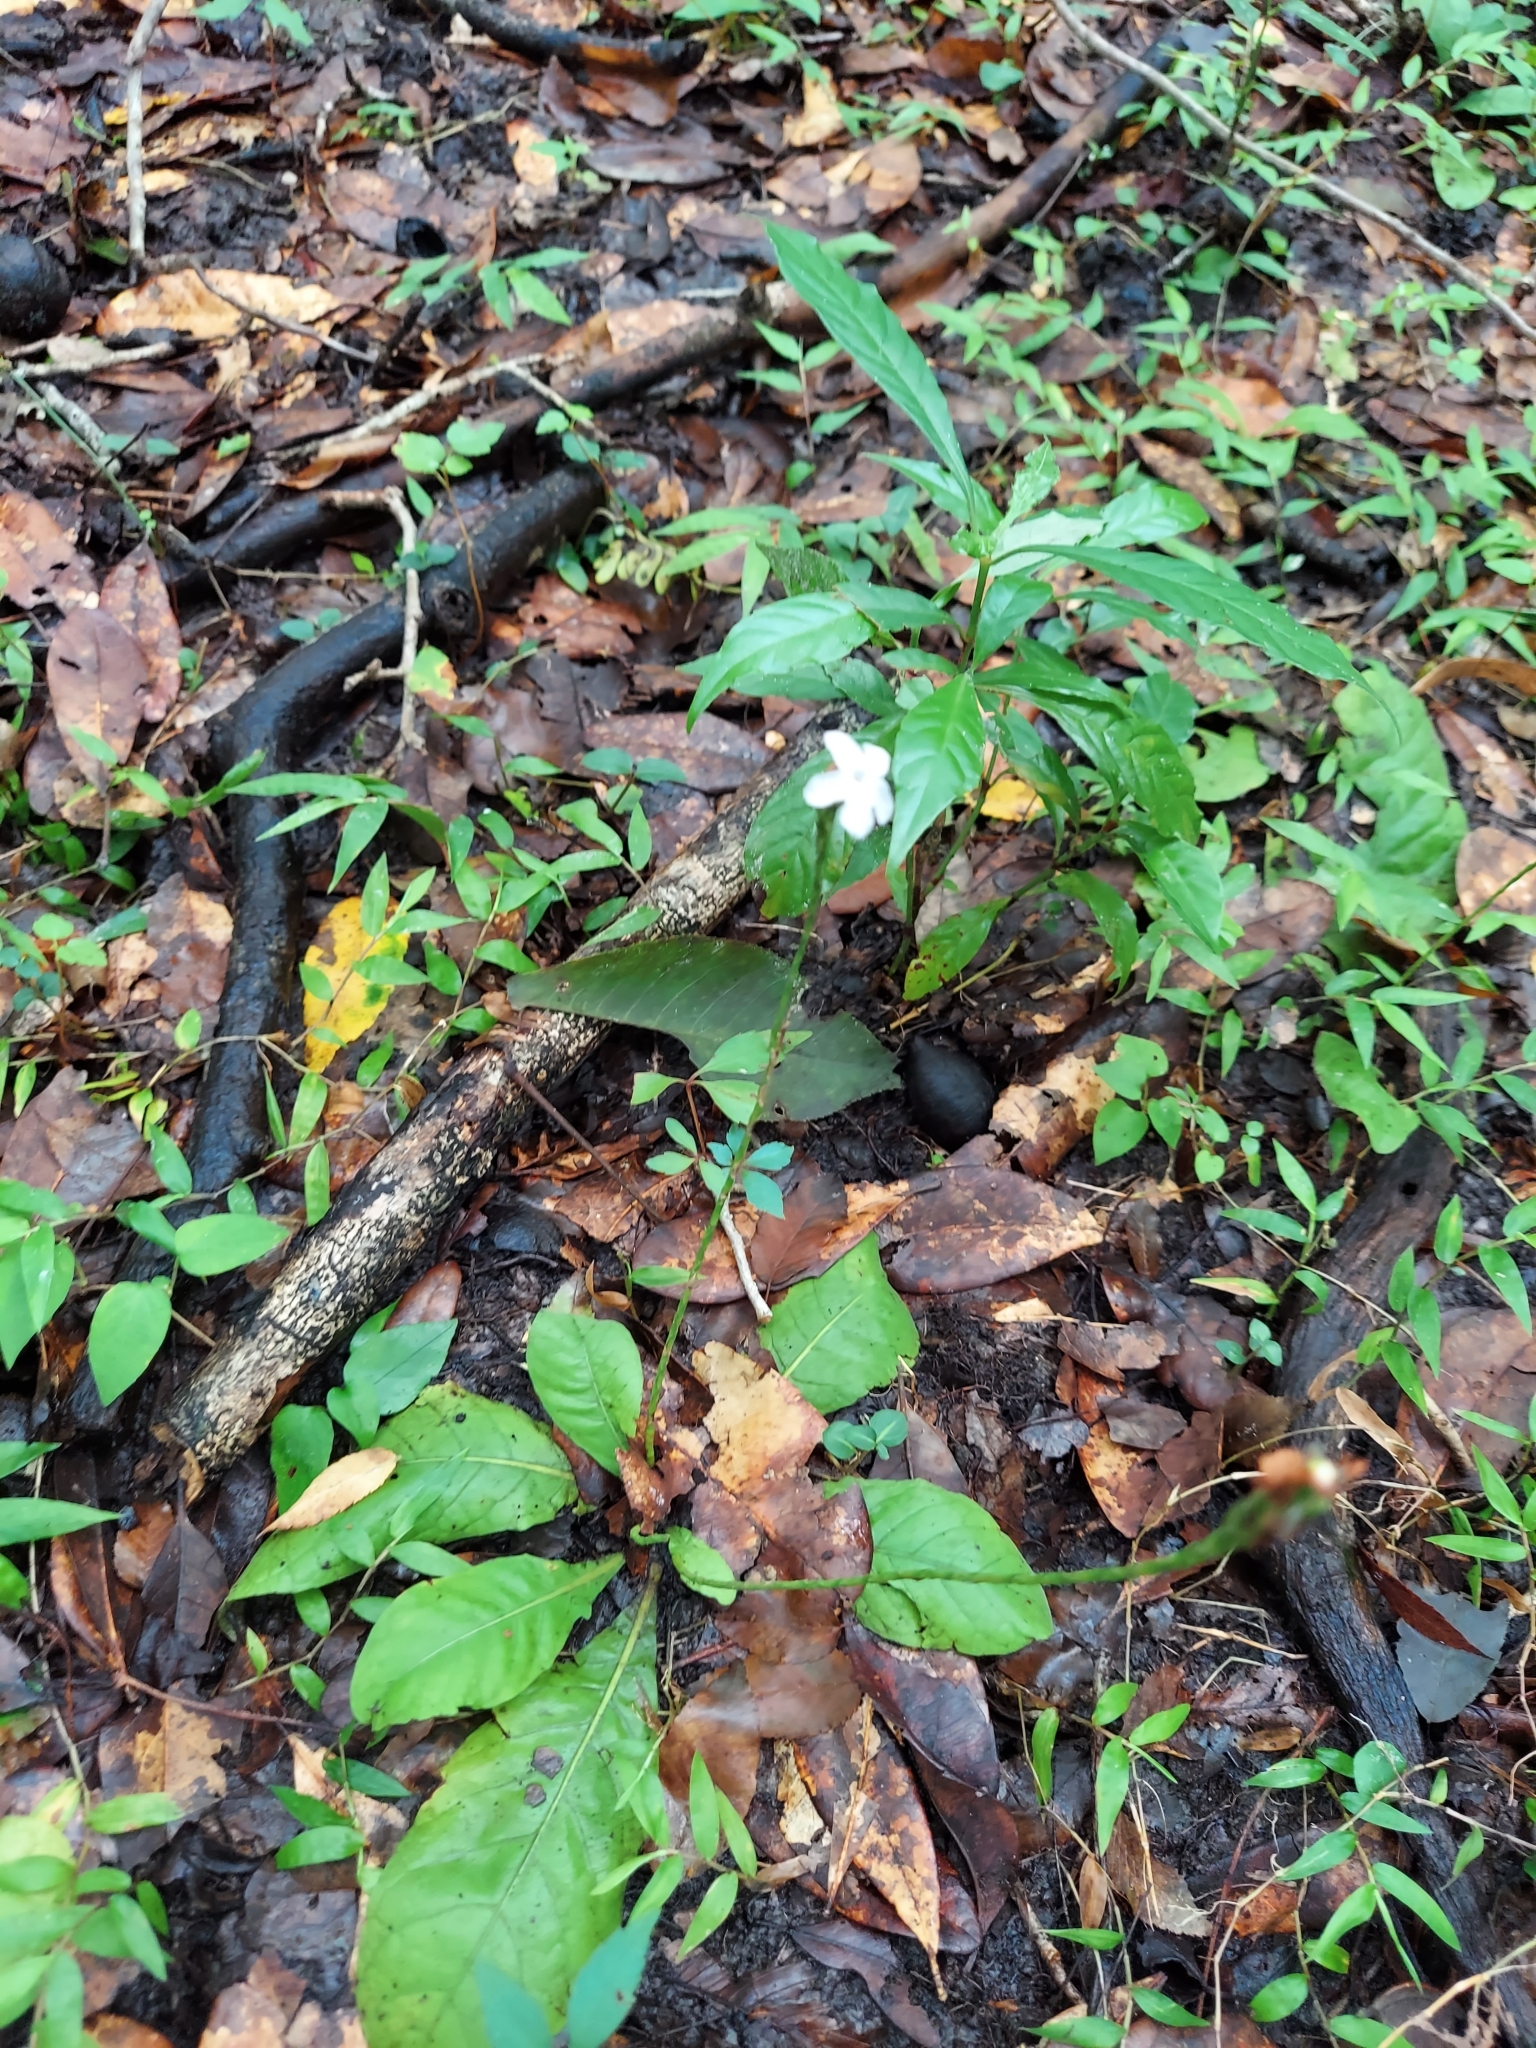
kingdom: Plantae
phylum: Tracheophyta
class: Magnoliopsida
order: Lamiales
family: Acanthaceae
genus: Elytraria
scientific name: Elytraria caroliniensis
